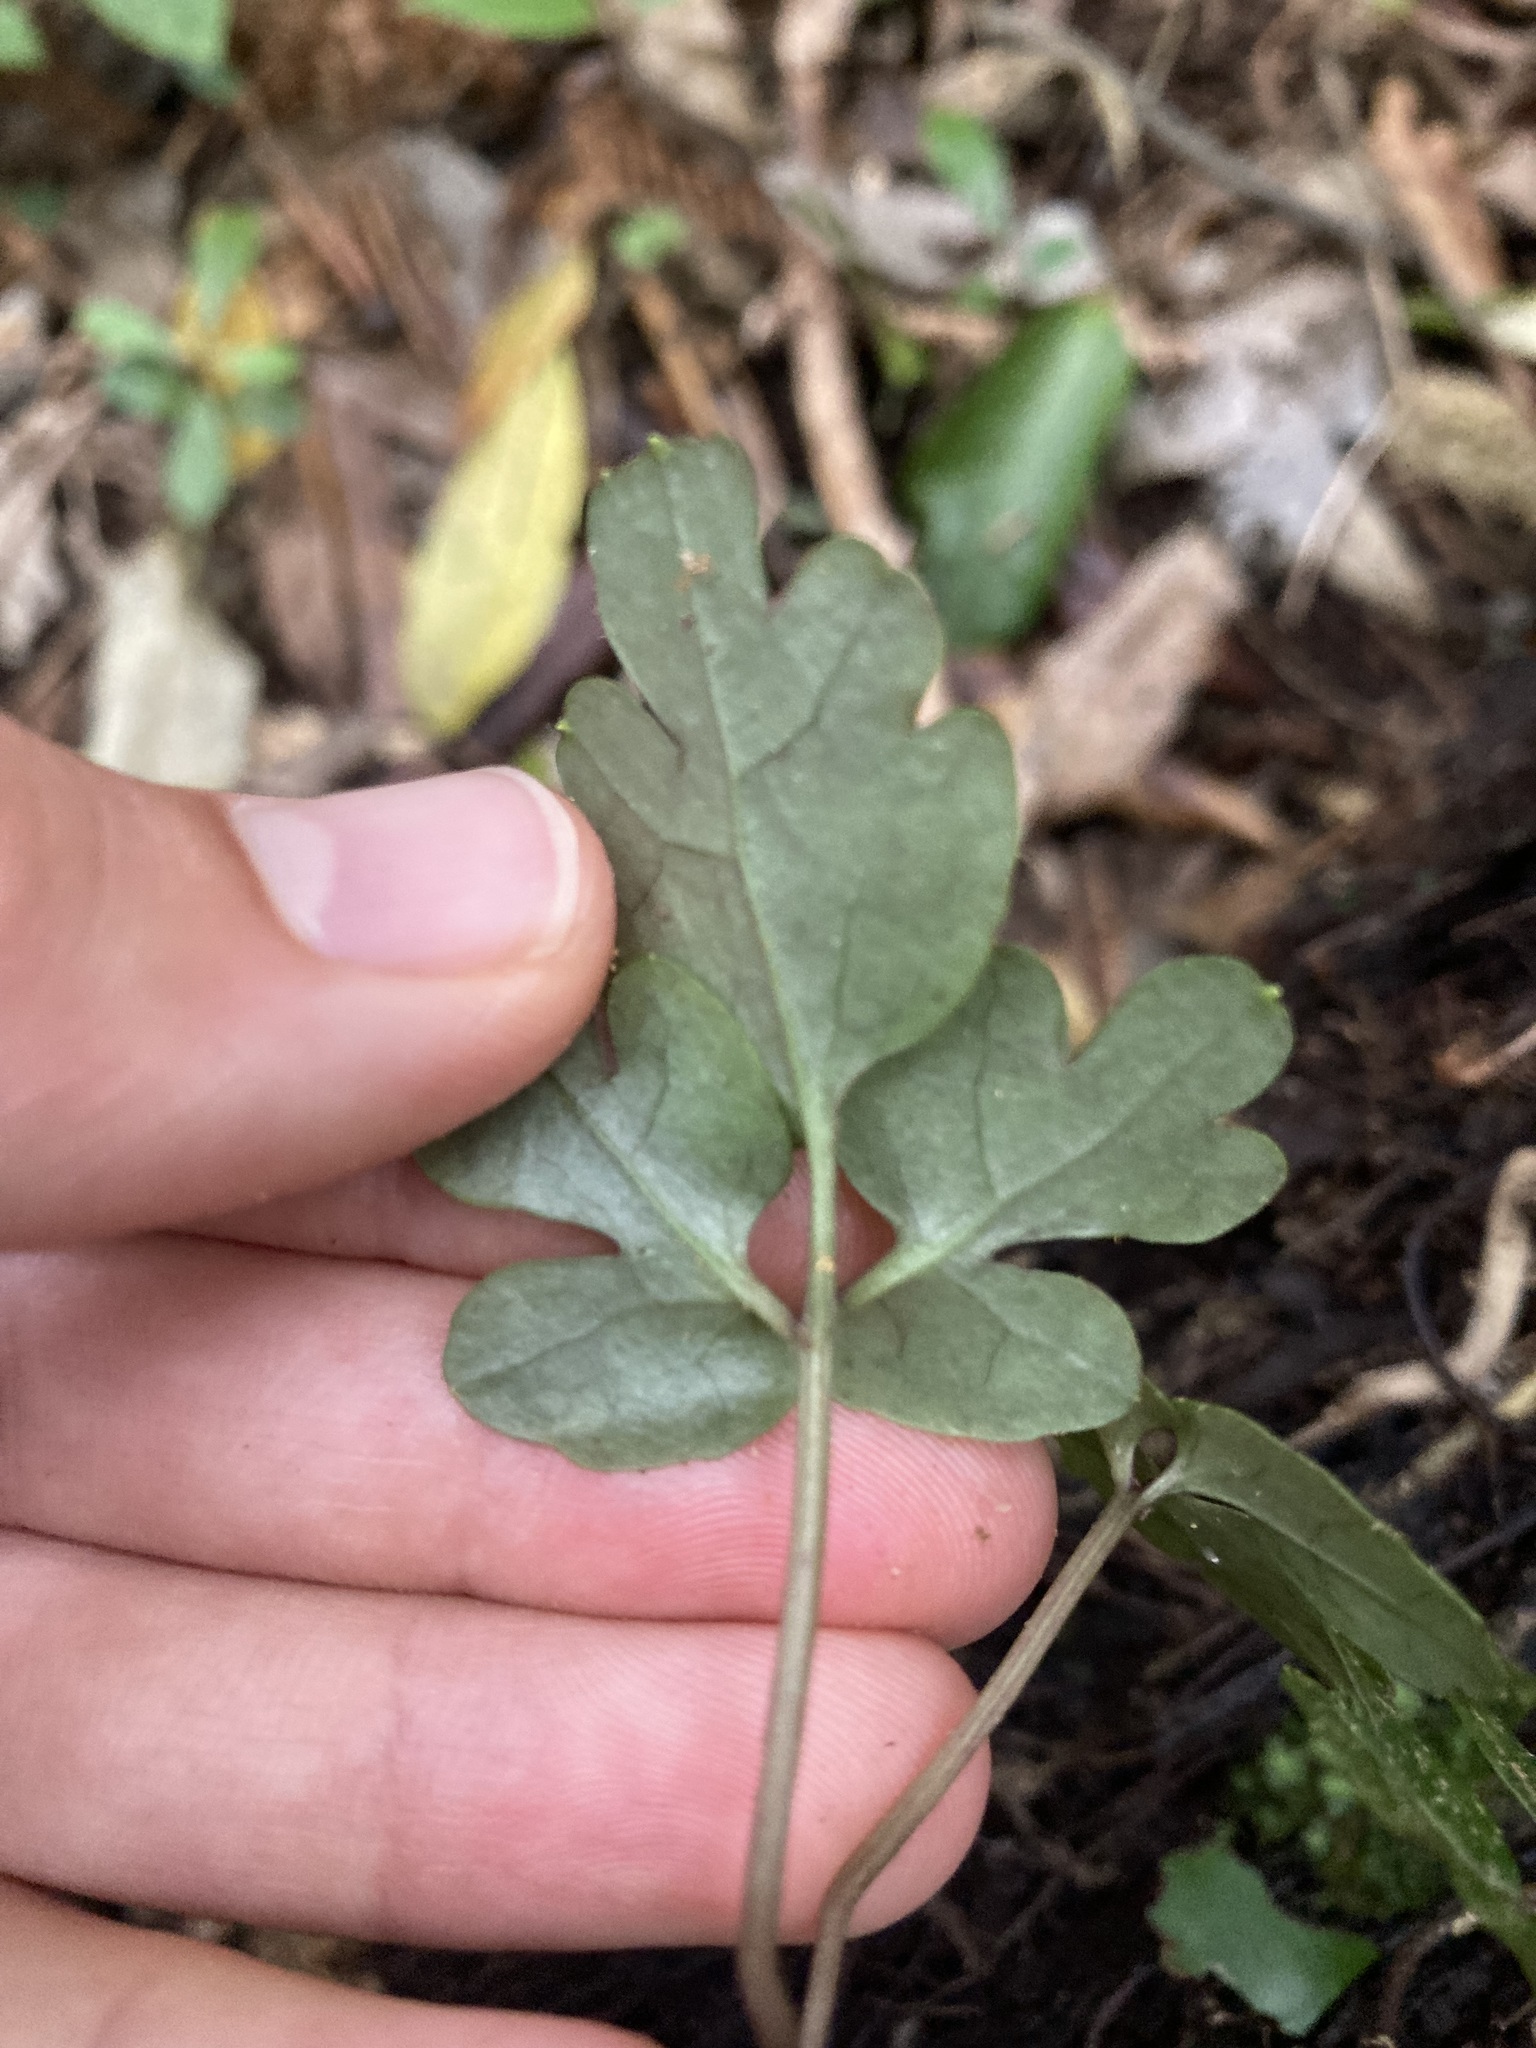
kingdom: Plantae
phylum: Tracheophyta
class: Magnoliopsida
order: Ranunculales
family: Ranunculaceae
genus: Clematis
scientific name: Clematis paniculata
